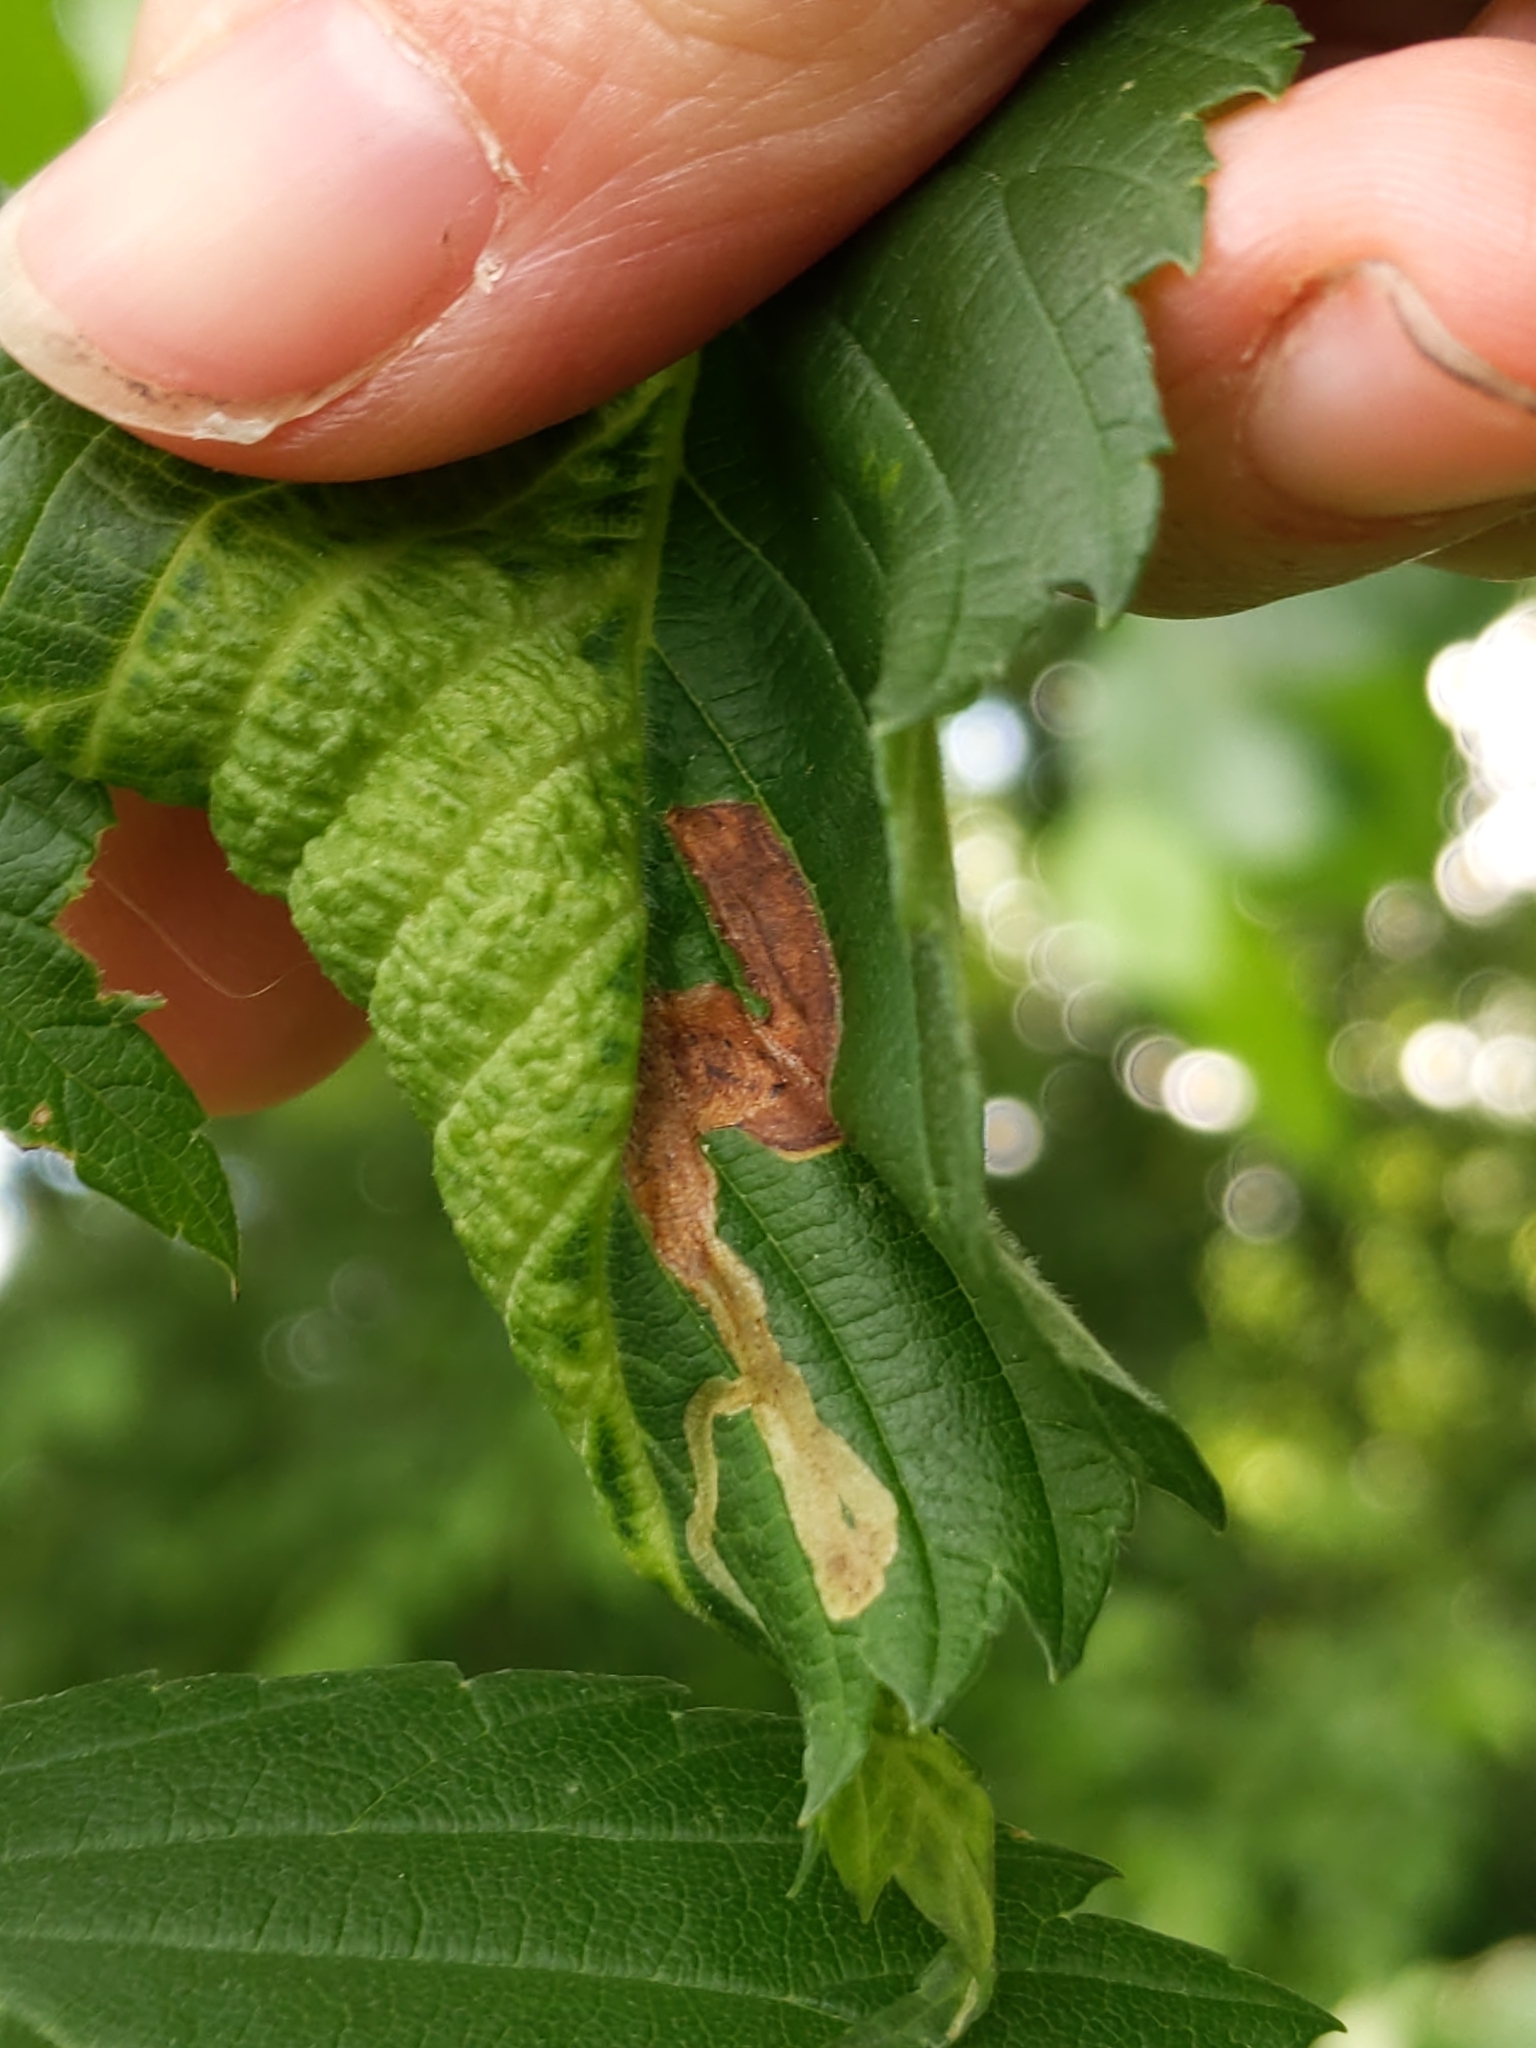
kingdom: Animalia
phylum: Arthropoda
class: Insecta
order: Diptera
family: Agromyzidae
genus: Agromyza
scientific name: Agromyza aristata
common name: Elm agromyzid leafminer
